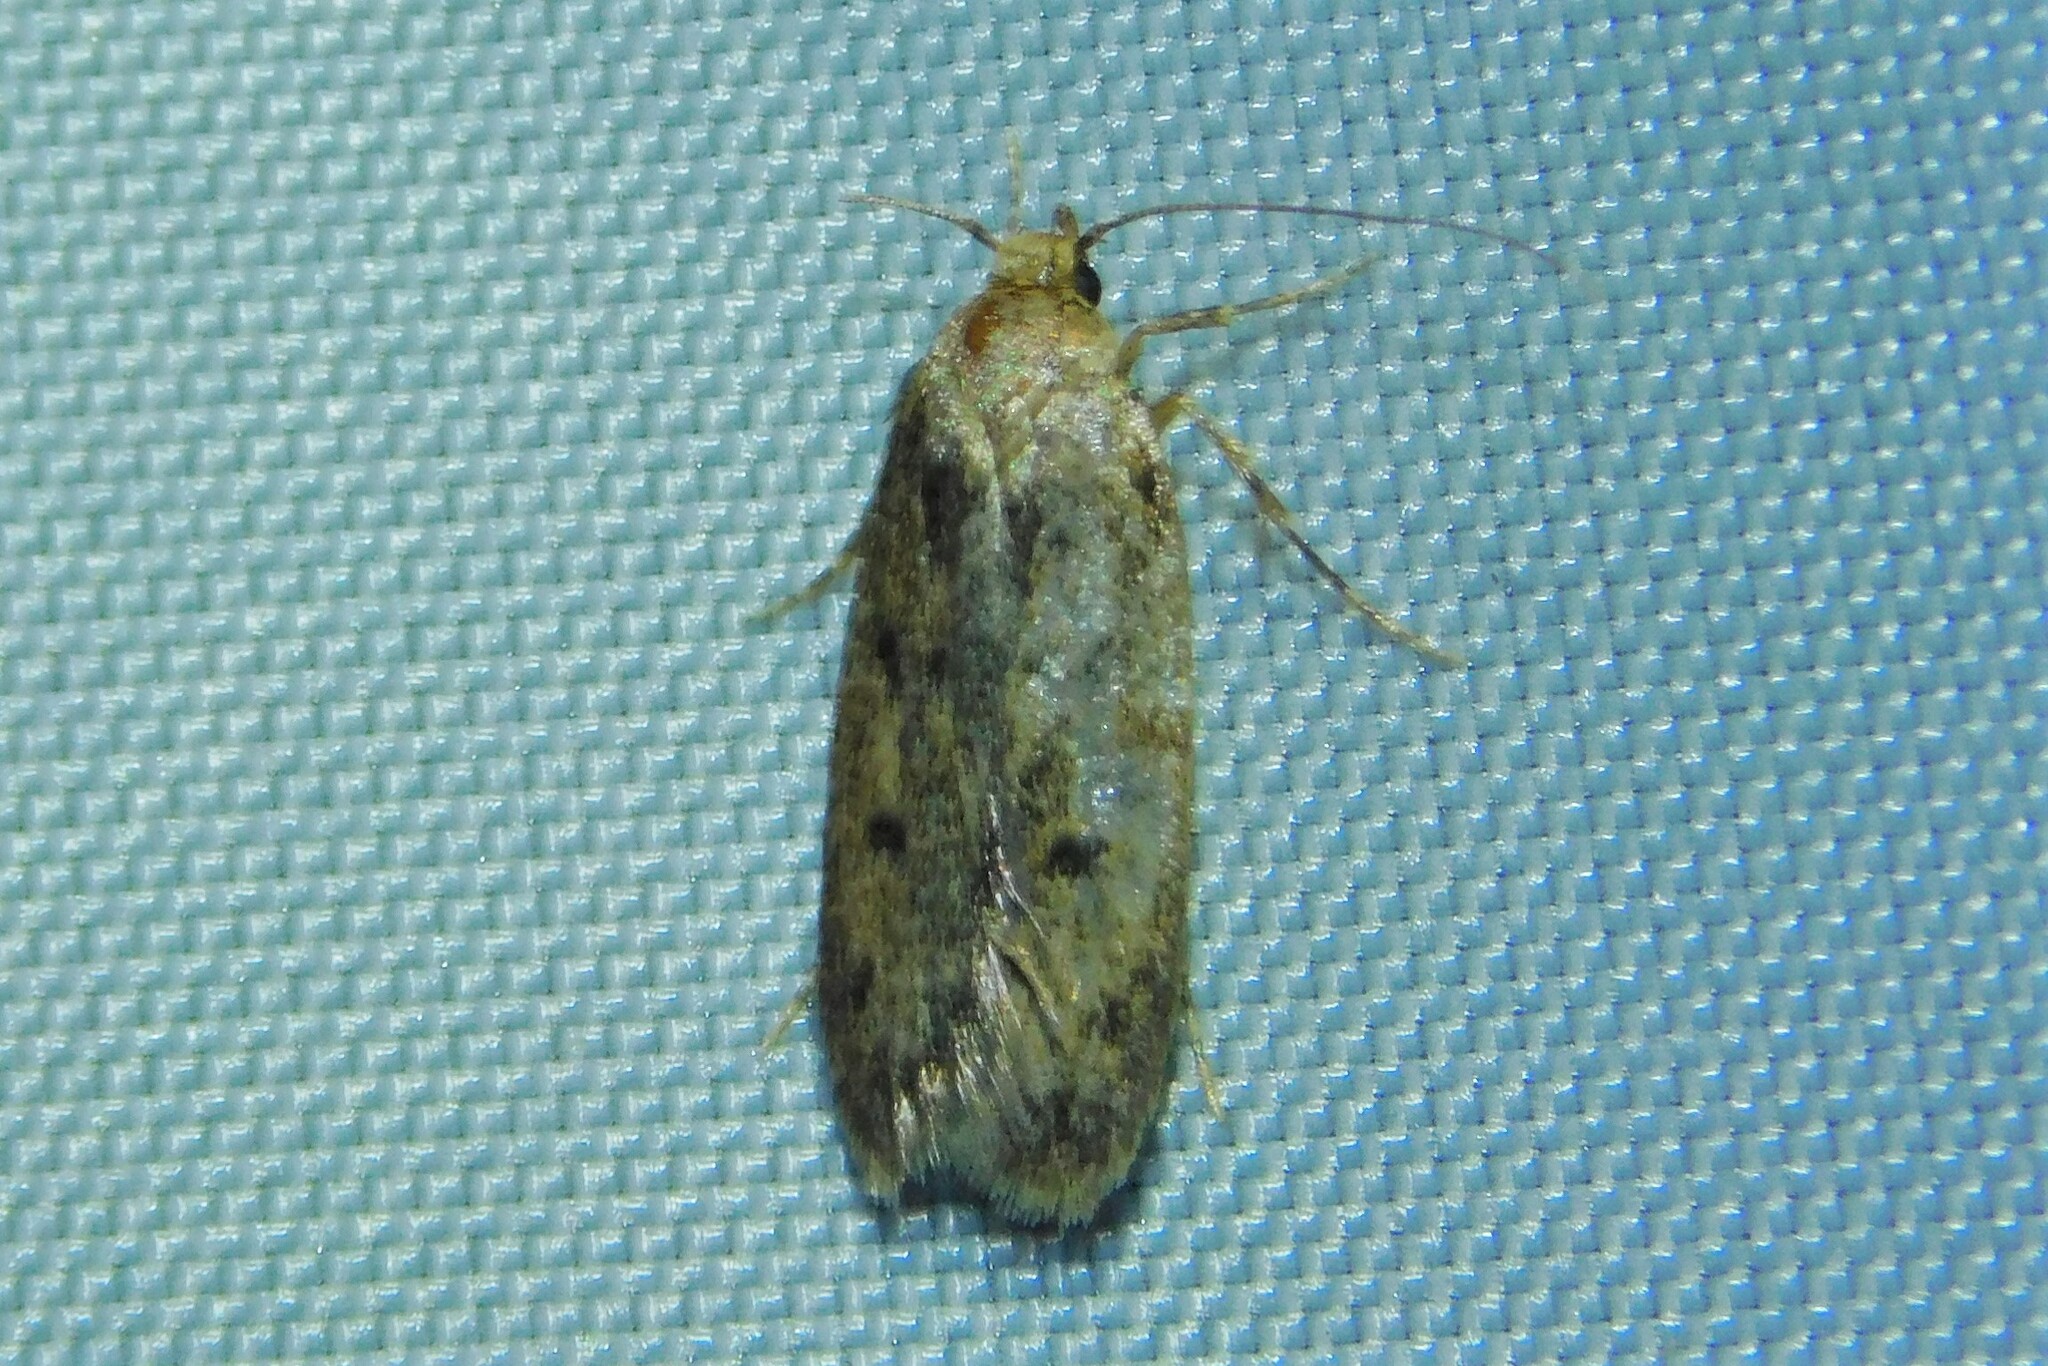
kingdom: Animalia
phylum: Arthropoda
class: Insecta
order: Lepidoptera
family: Oecophoridae
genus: Hofmannophila
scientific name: Hofmannophila pseudospretella
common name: Brown house moth
